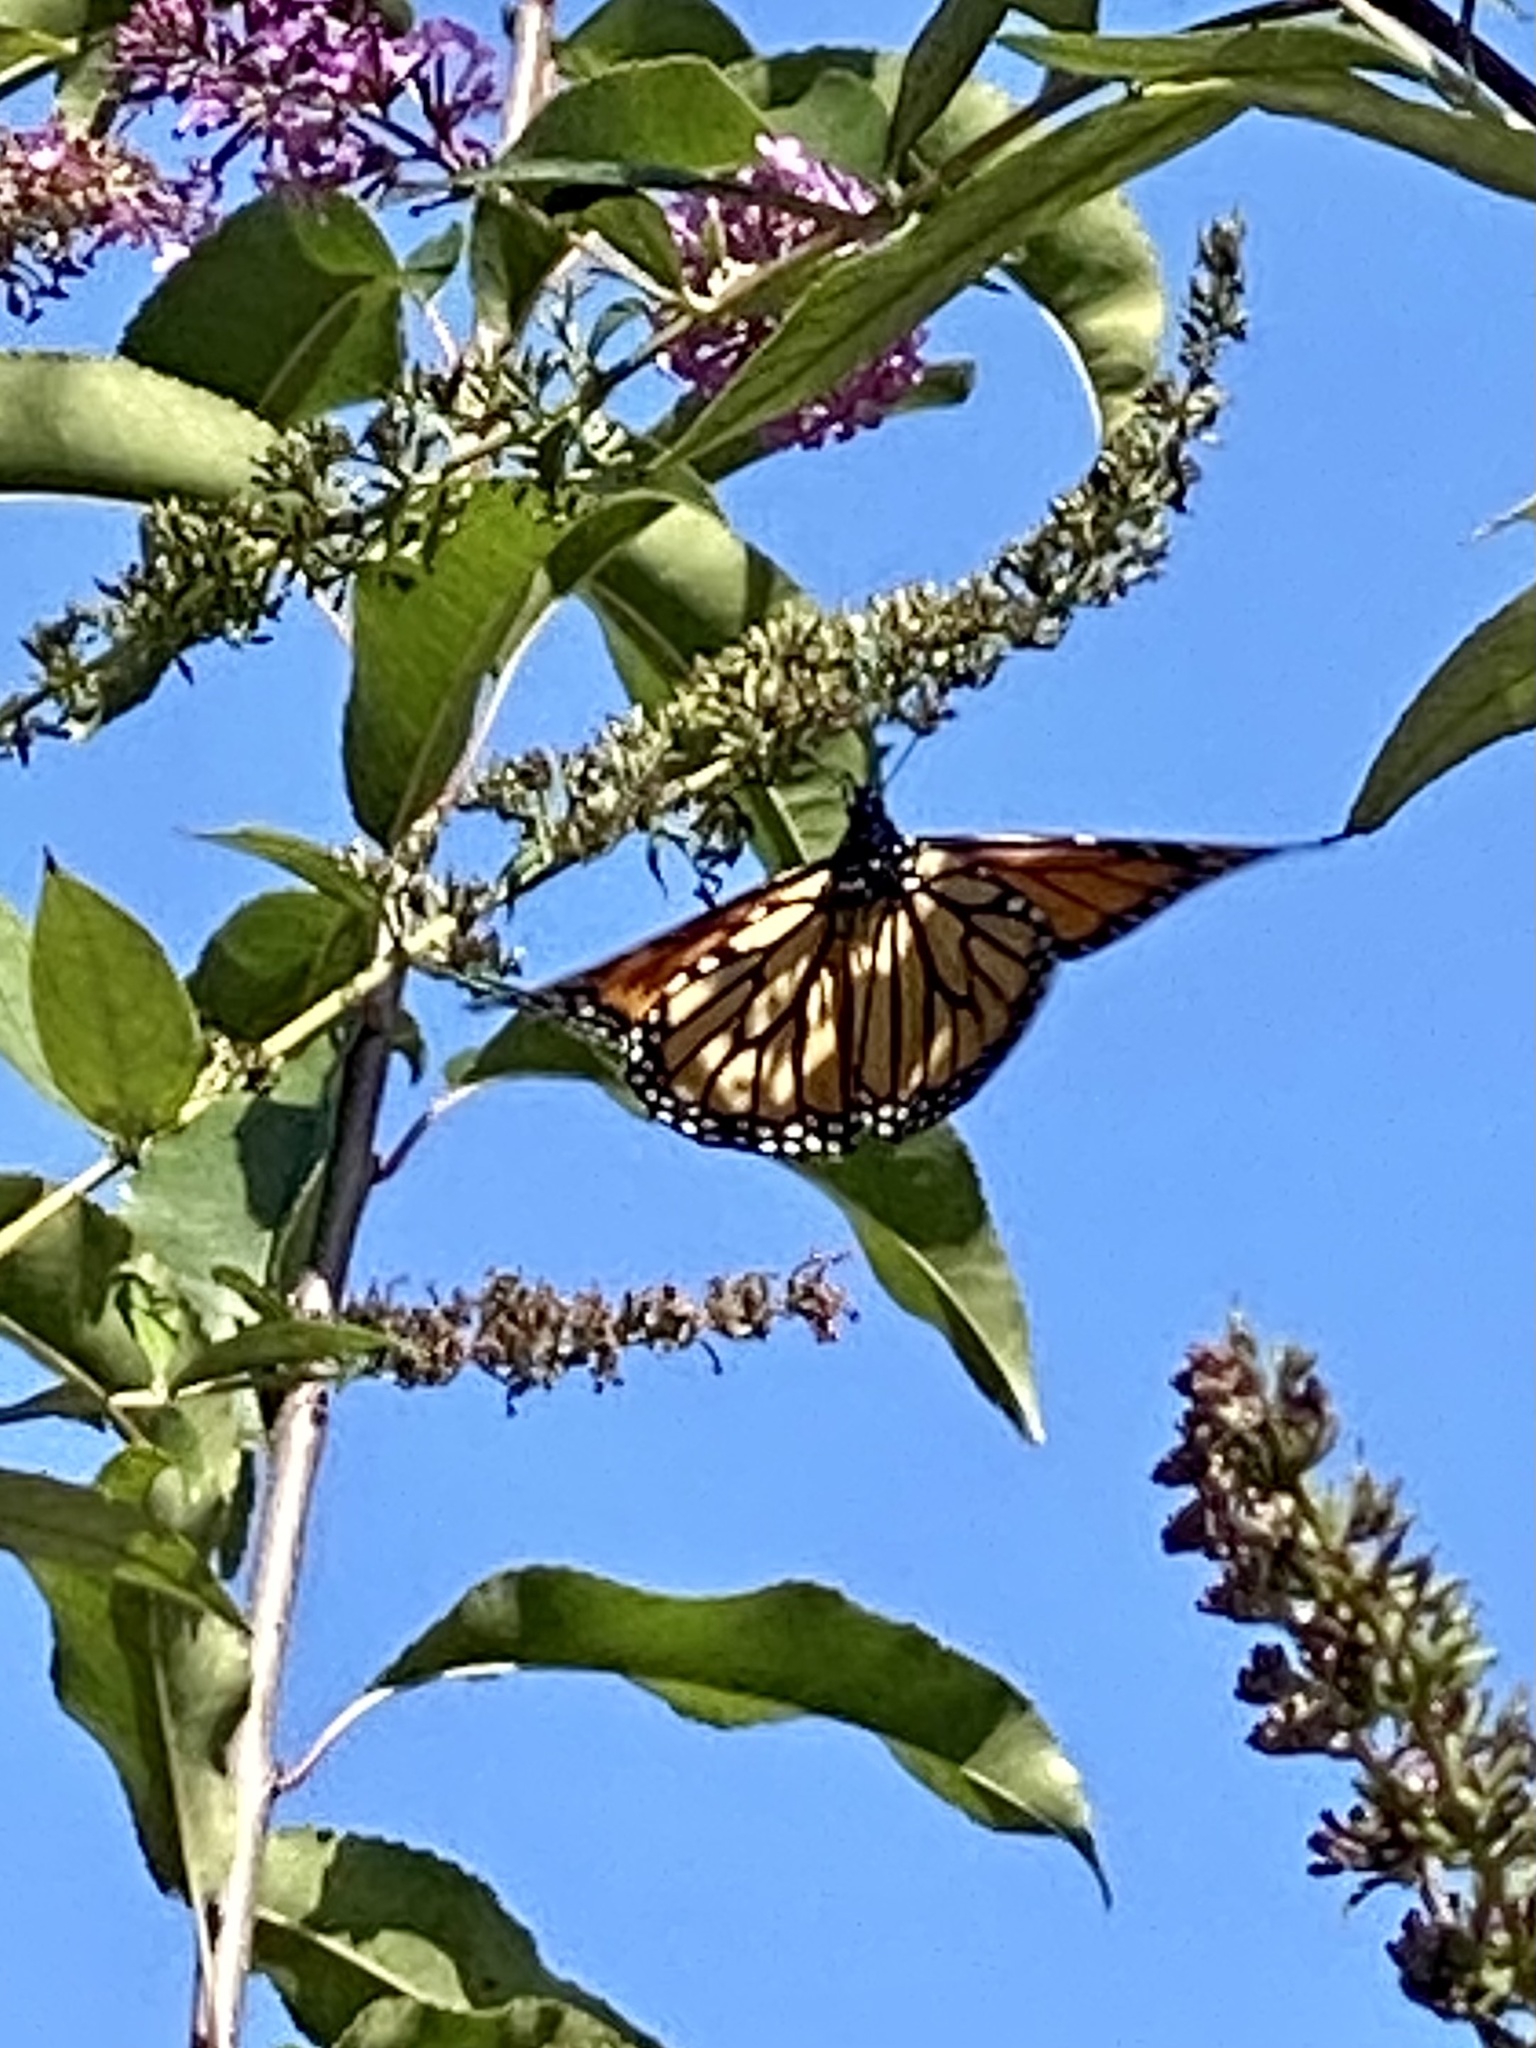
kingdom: Animalia
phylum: Arthropoda
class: Insecta
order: Lepidoptera
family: Nymphalidae
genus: Danaus
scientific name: Danaus plexippus
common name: Monarch
